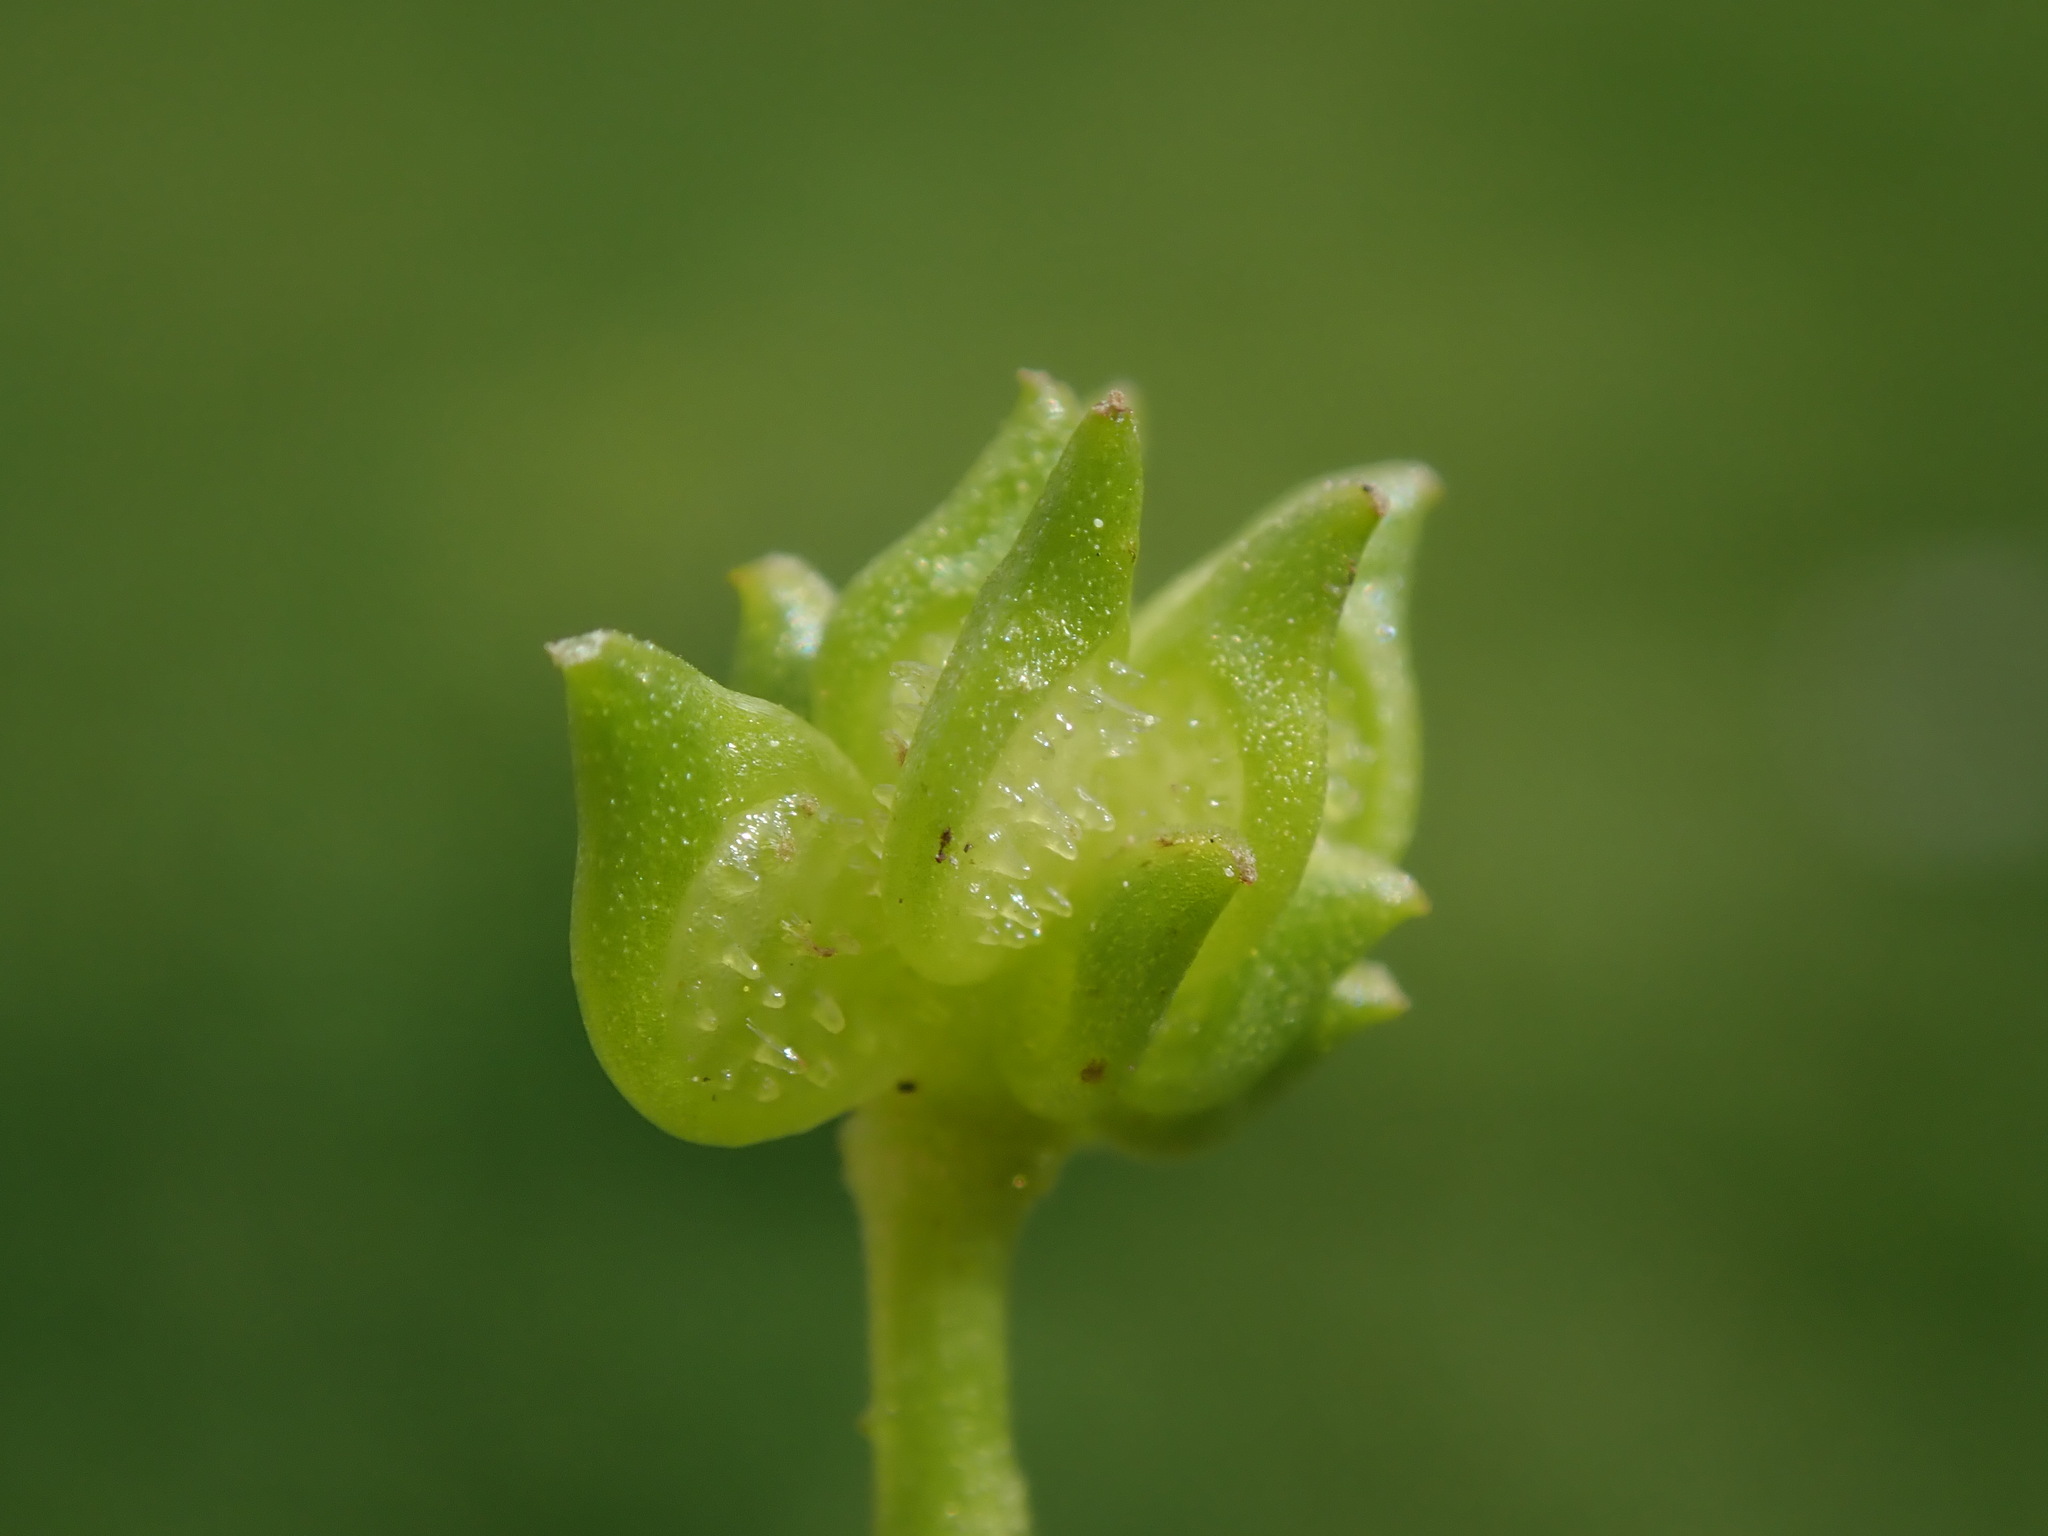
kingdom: Plantae
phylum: Tracheophyta
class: Magnoliopsida
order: Ranunculales
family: Ranunculaceae
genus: Ranunculus
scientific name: Ranunculus muricatus
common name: Rough-fruited buttercup
